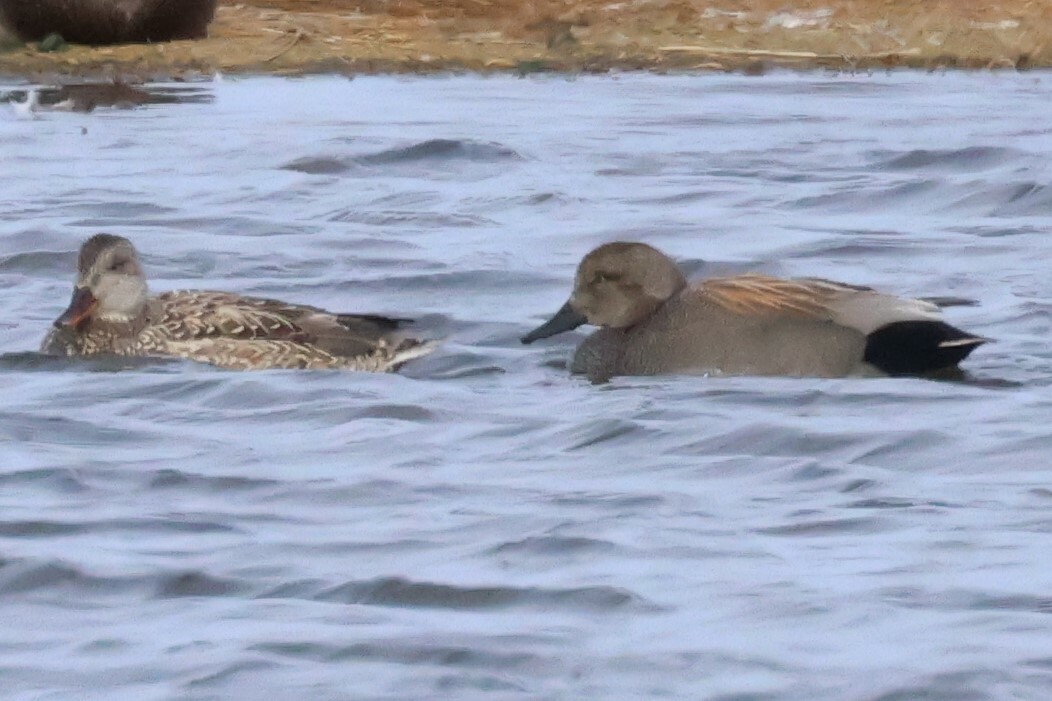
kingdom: Animalia
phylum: Chordata
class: Aves
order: Anseriformes
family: Anatidae
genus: Mareca
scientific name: Mareca strepera
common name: Gadwall
